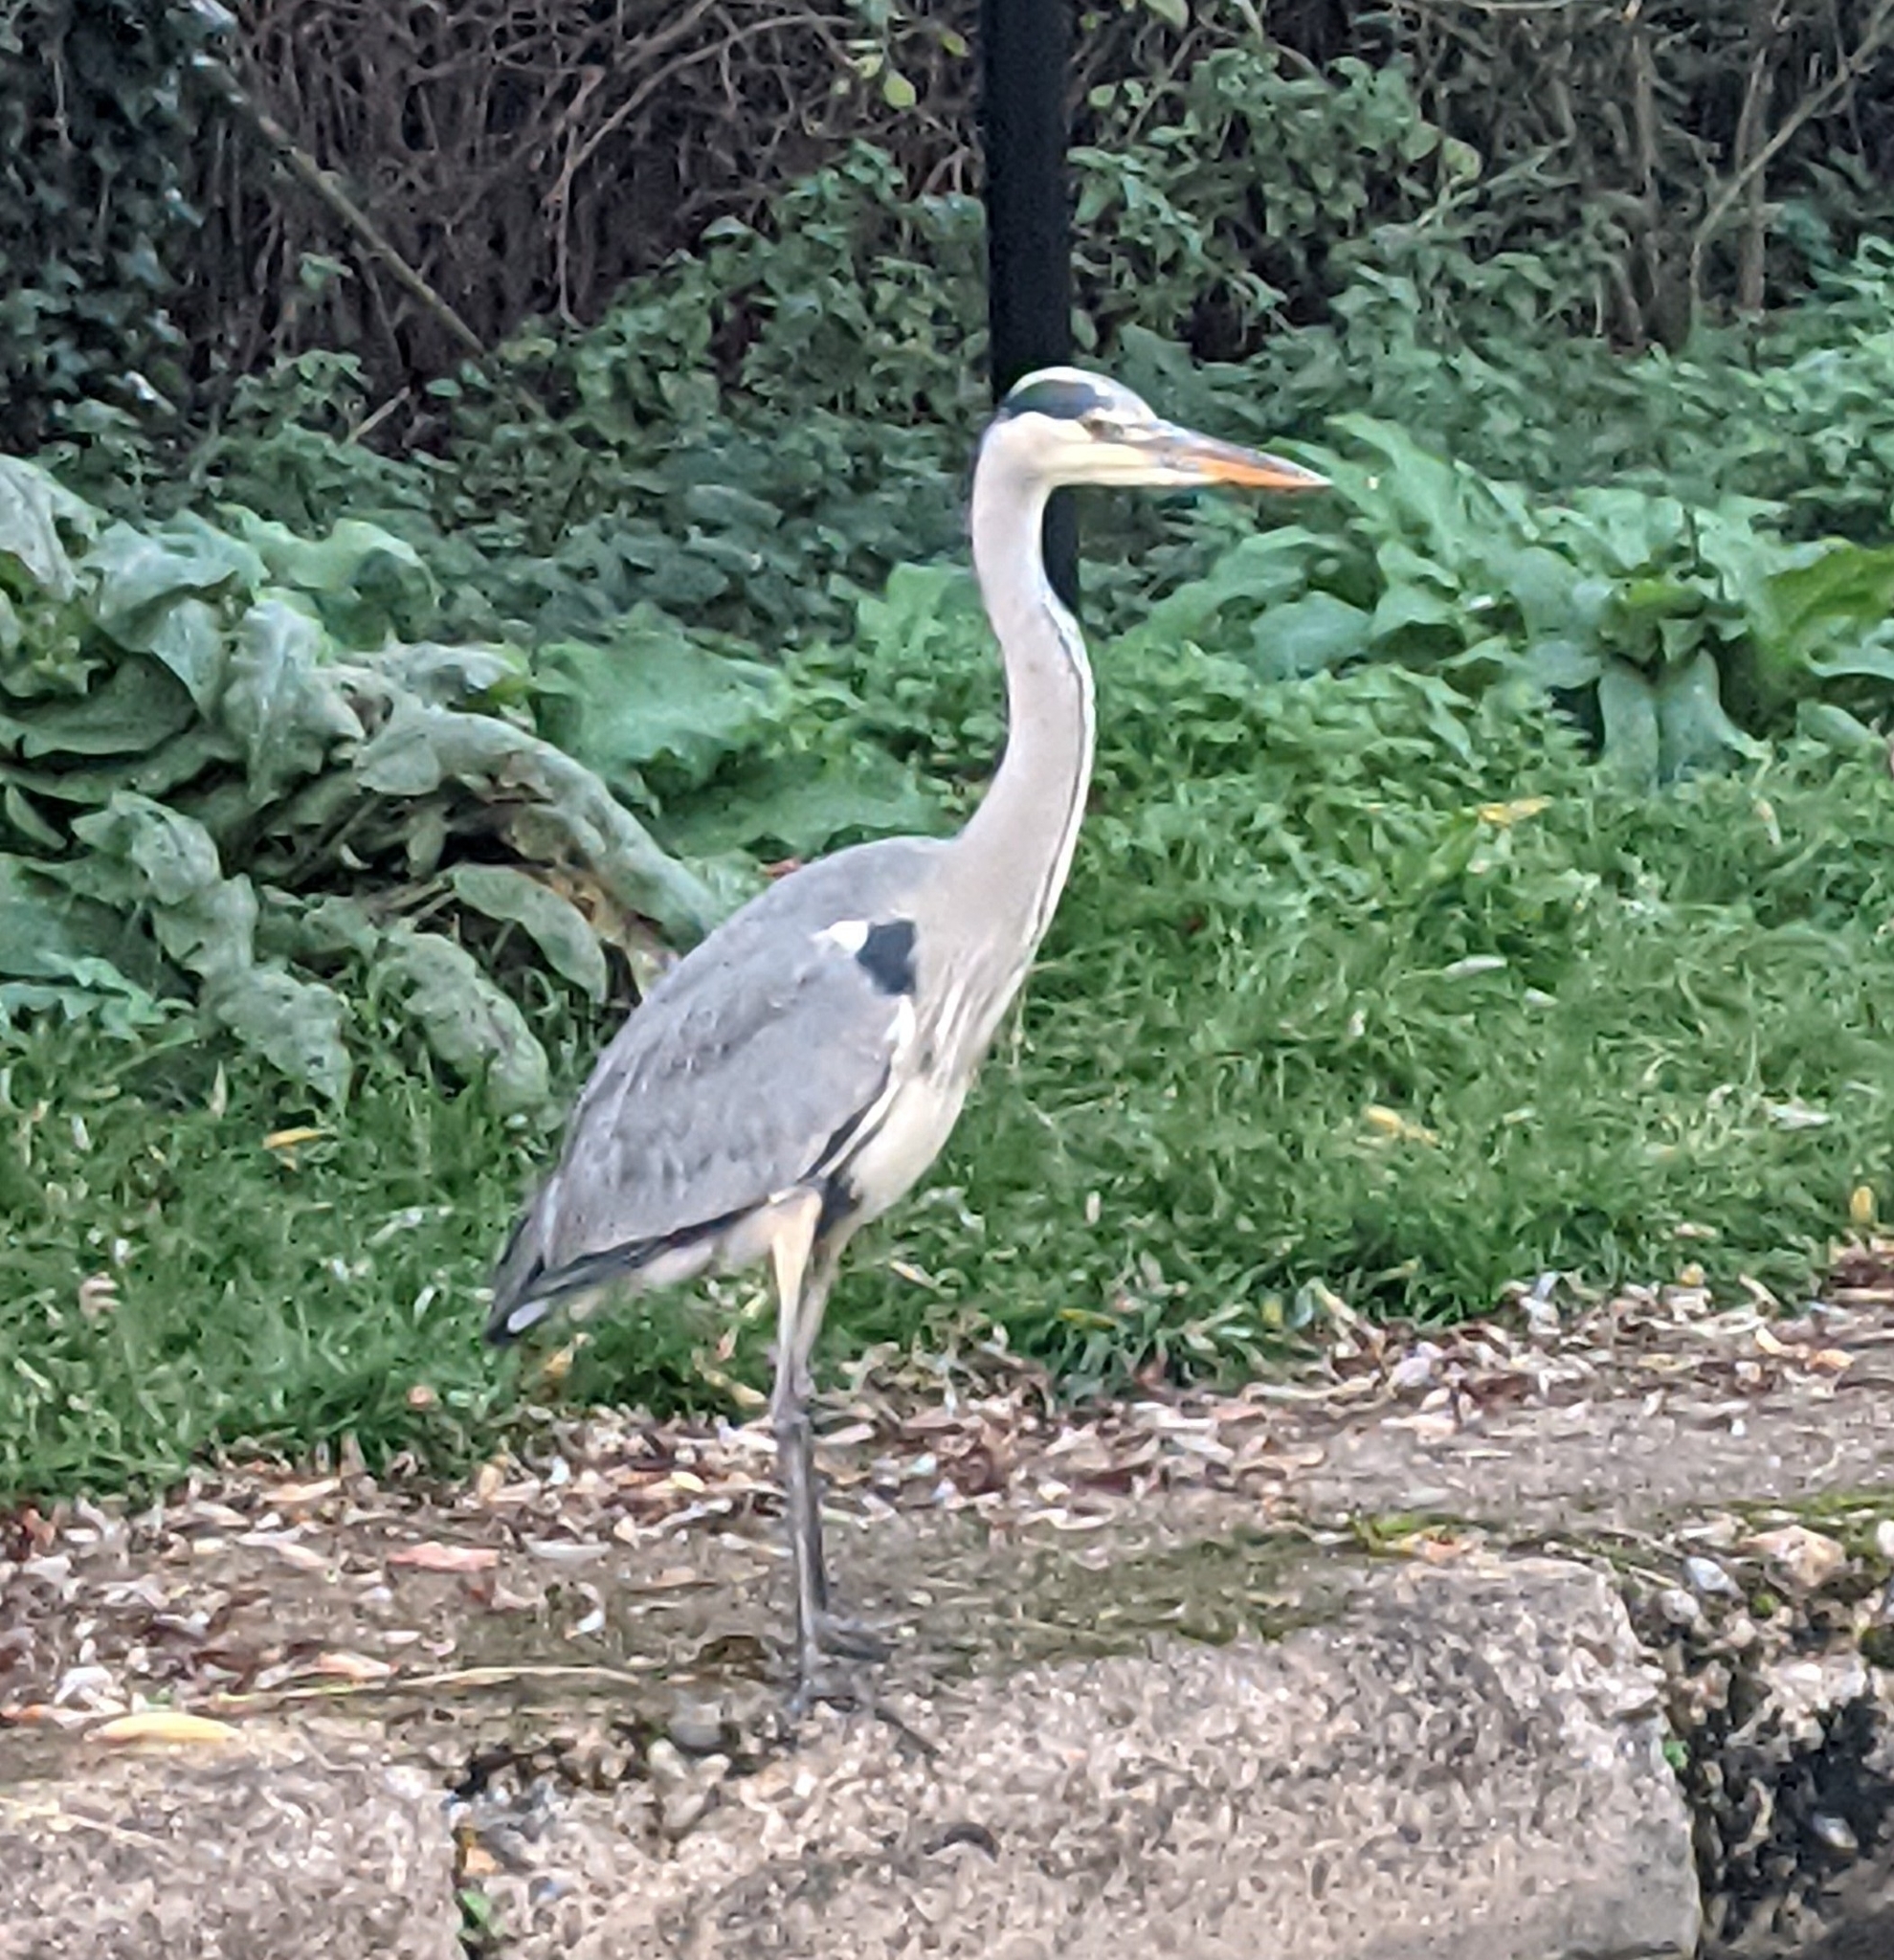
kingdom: Animalia
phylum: Chordata
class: Aves
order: Pelecaniformes
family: Ardeidae
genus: Ardea
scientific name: Ardea cinerea
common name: Grey heron
